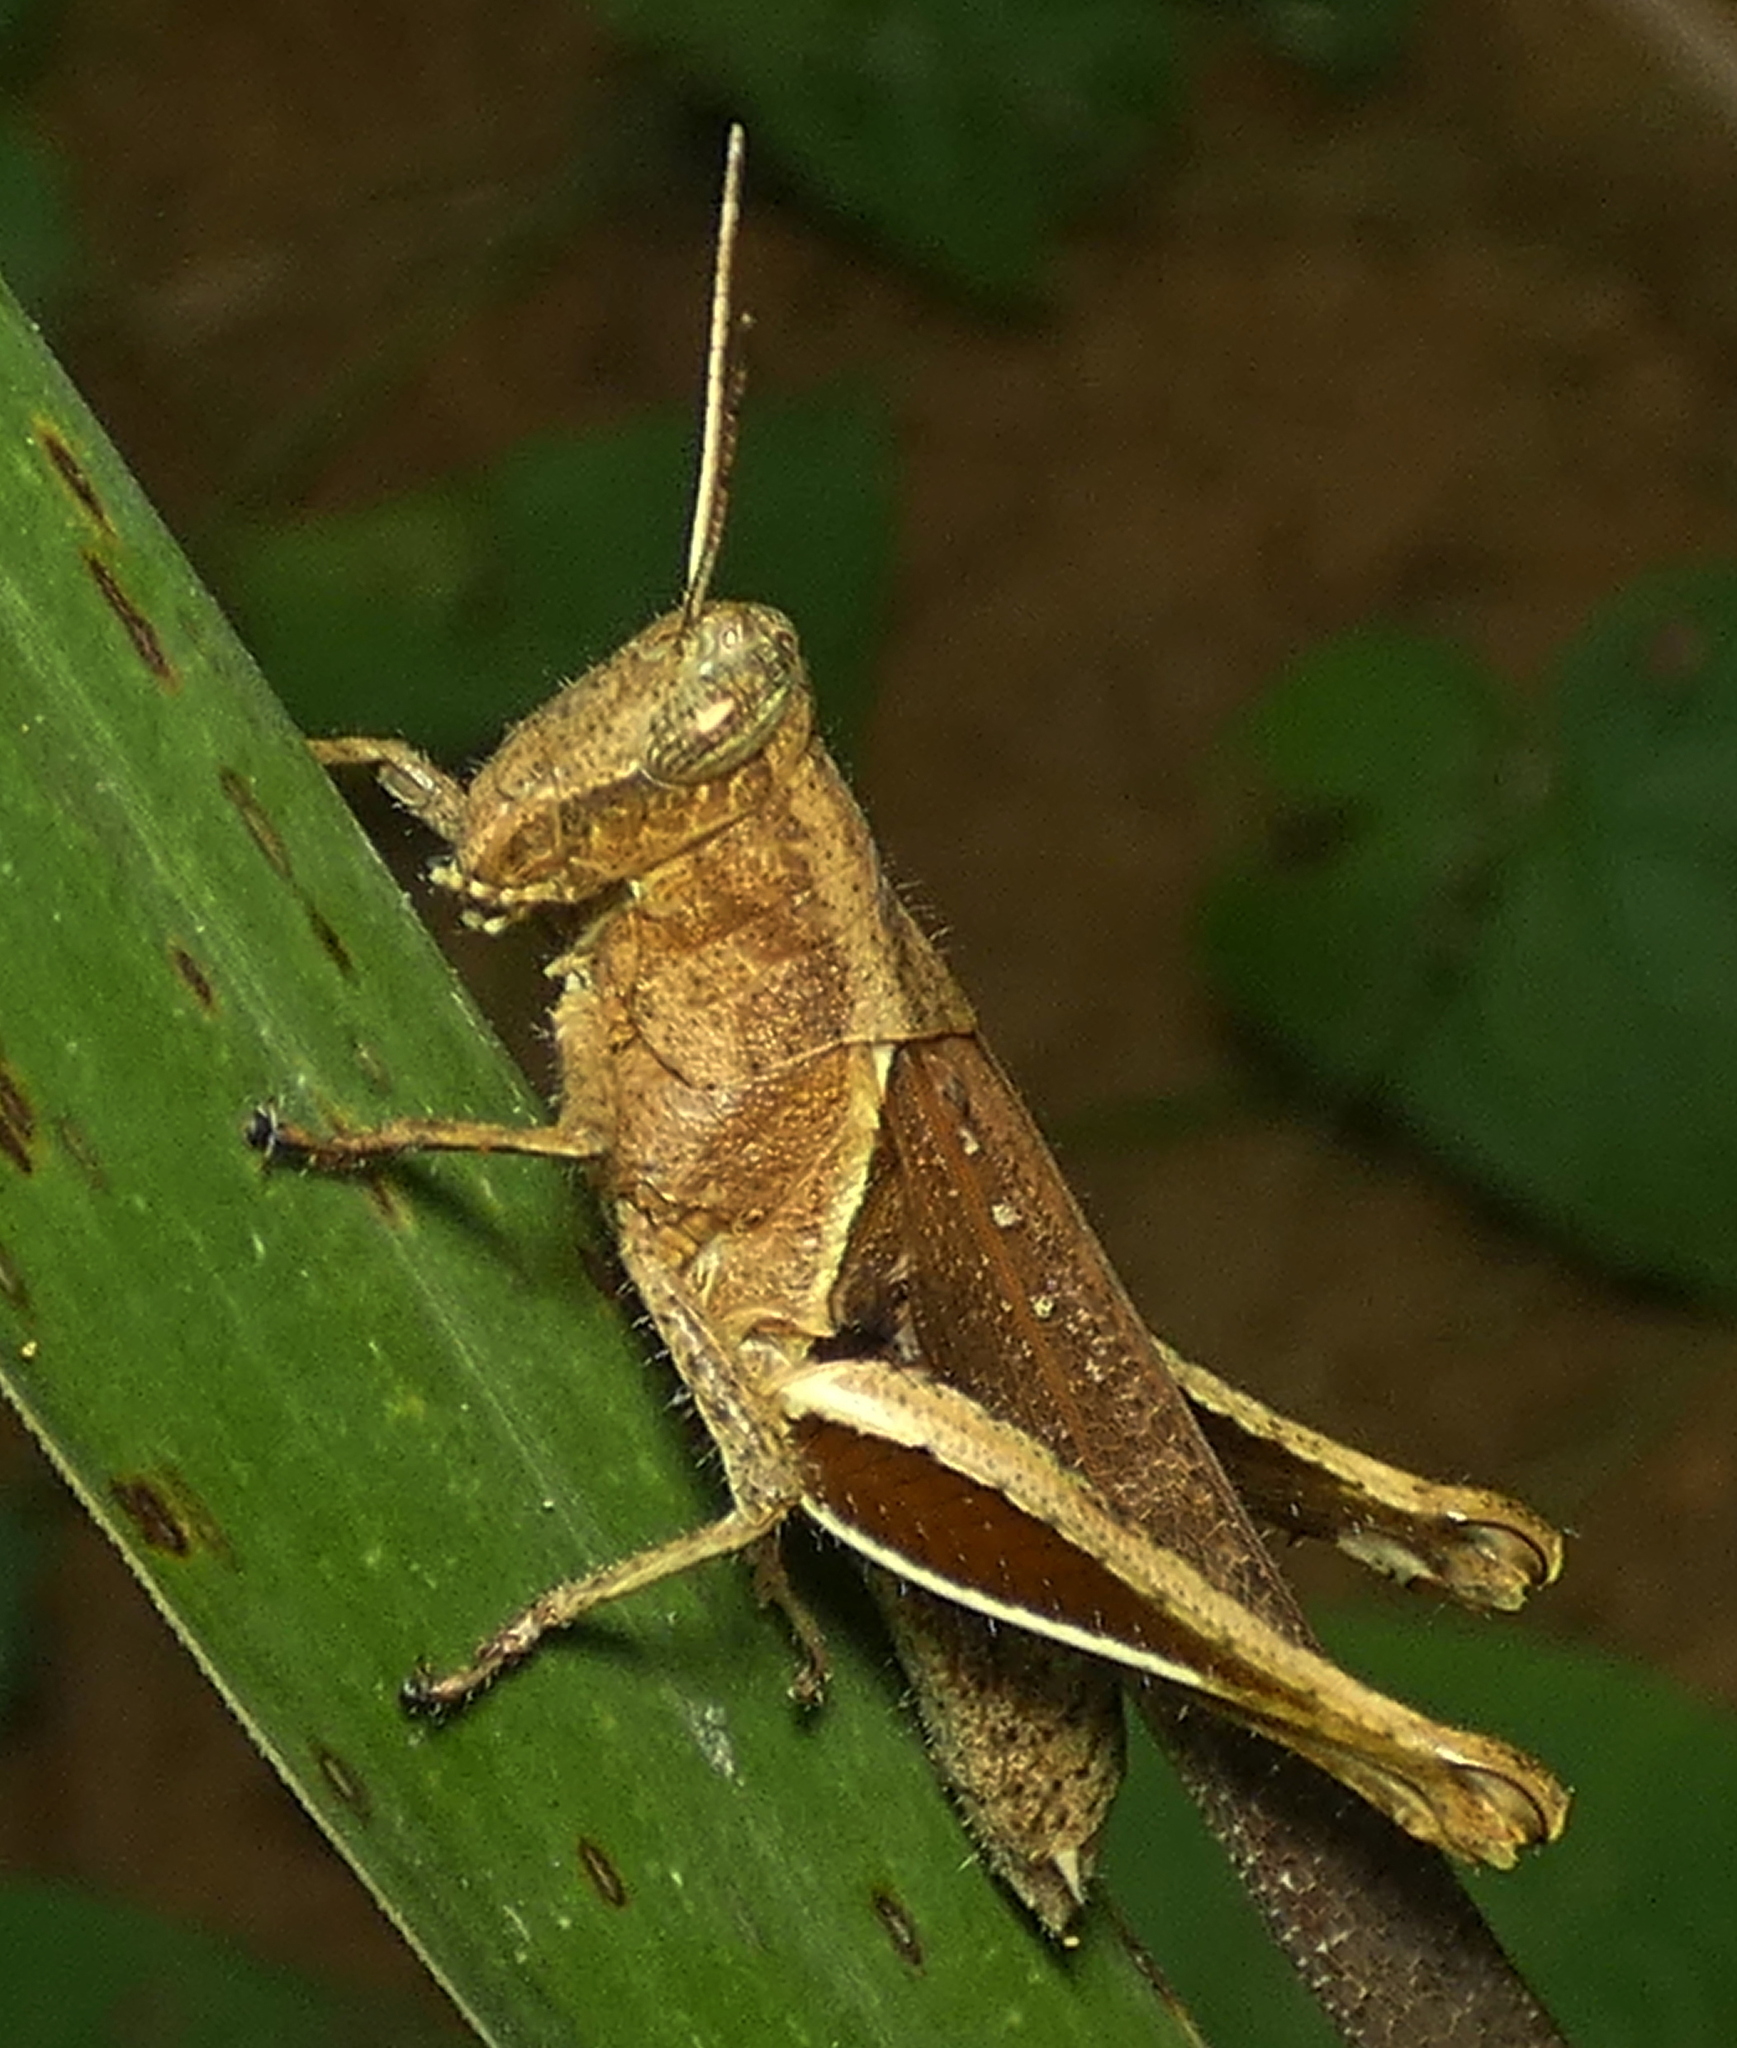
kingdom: Animalia
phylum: Arthropoda
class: Insecta
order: Orthoptera
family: Acrididae
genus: Abracris
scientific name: Abracris flavolineata
